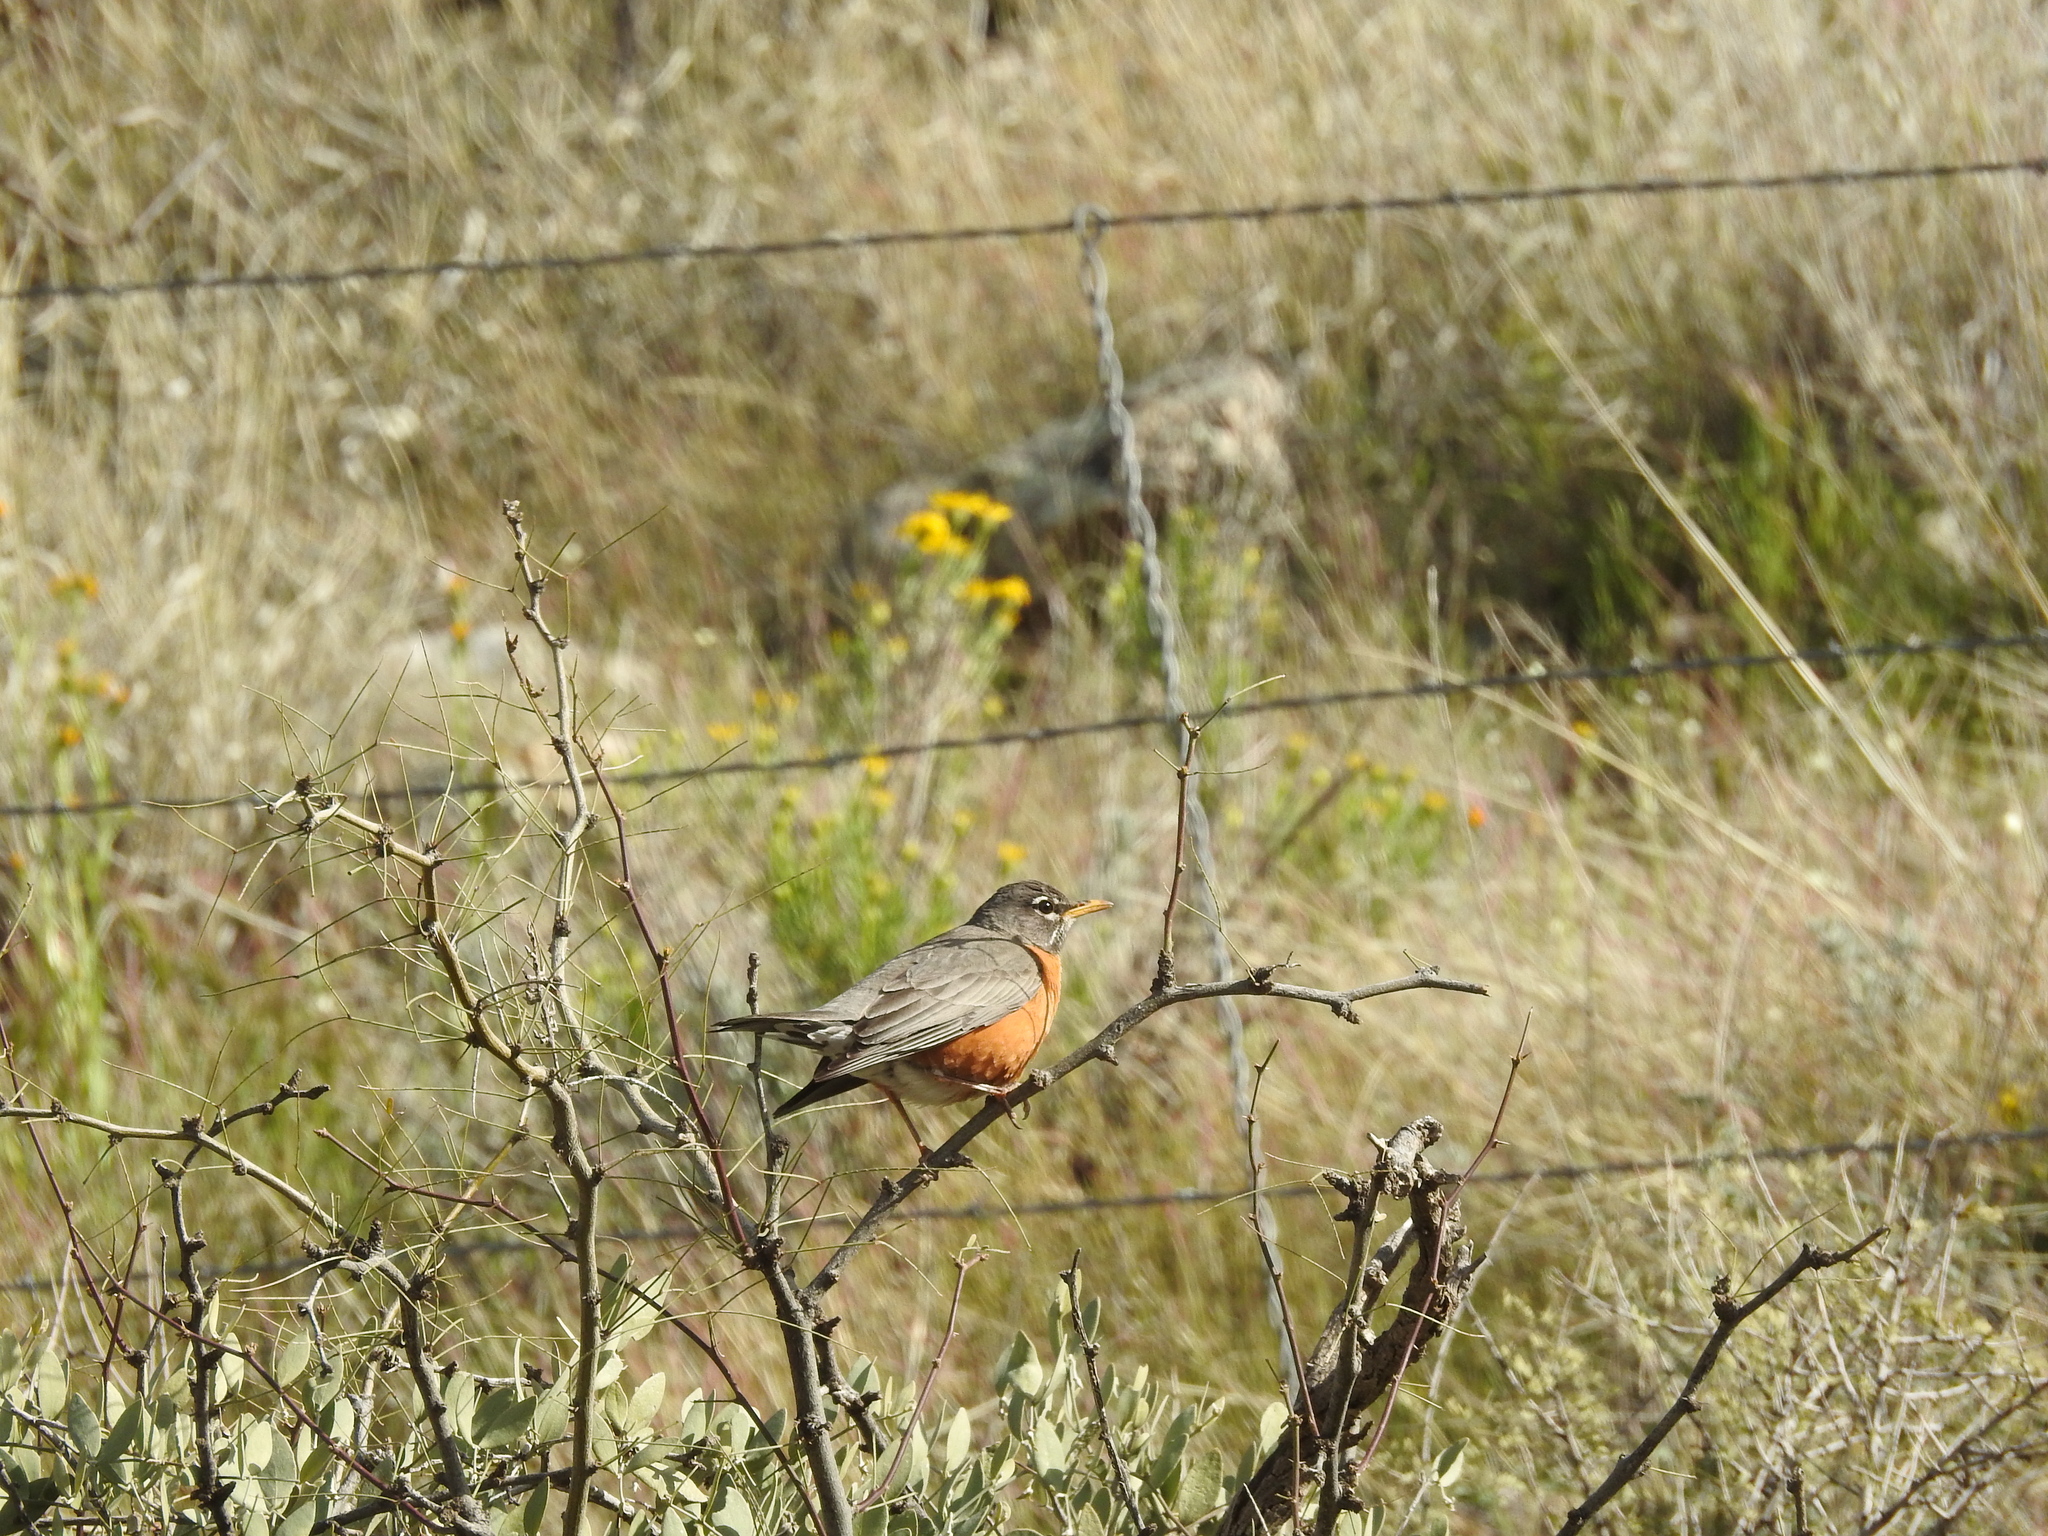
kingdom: Animalia
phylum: Chordata
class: Aves
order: Passeriformes
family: Turdidae
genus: Turdus
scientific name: Turdus migratorius
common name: American robin
